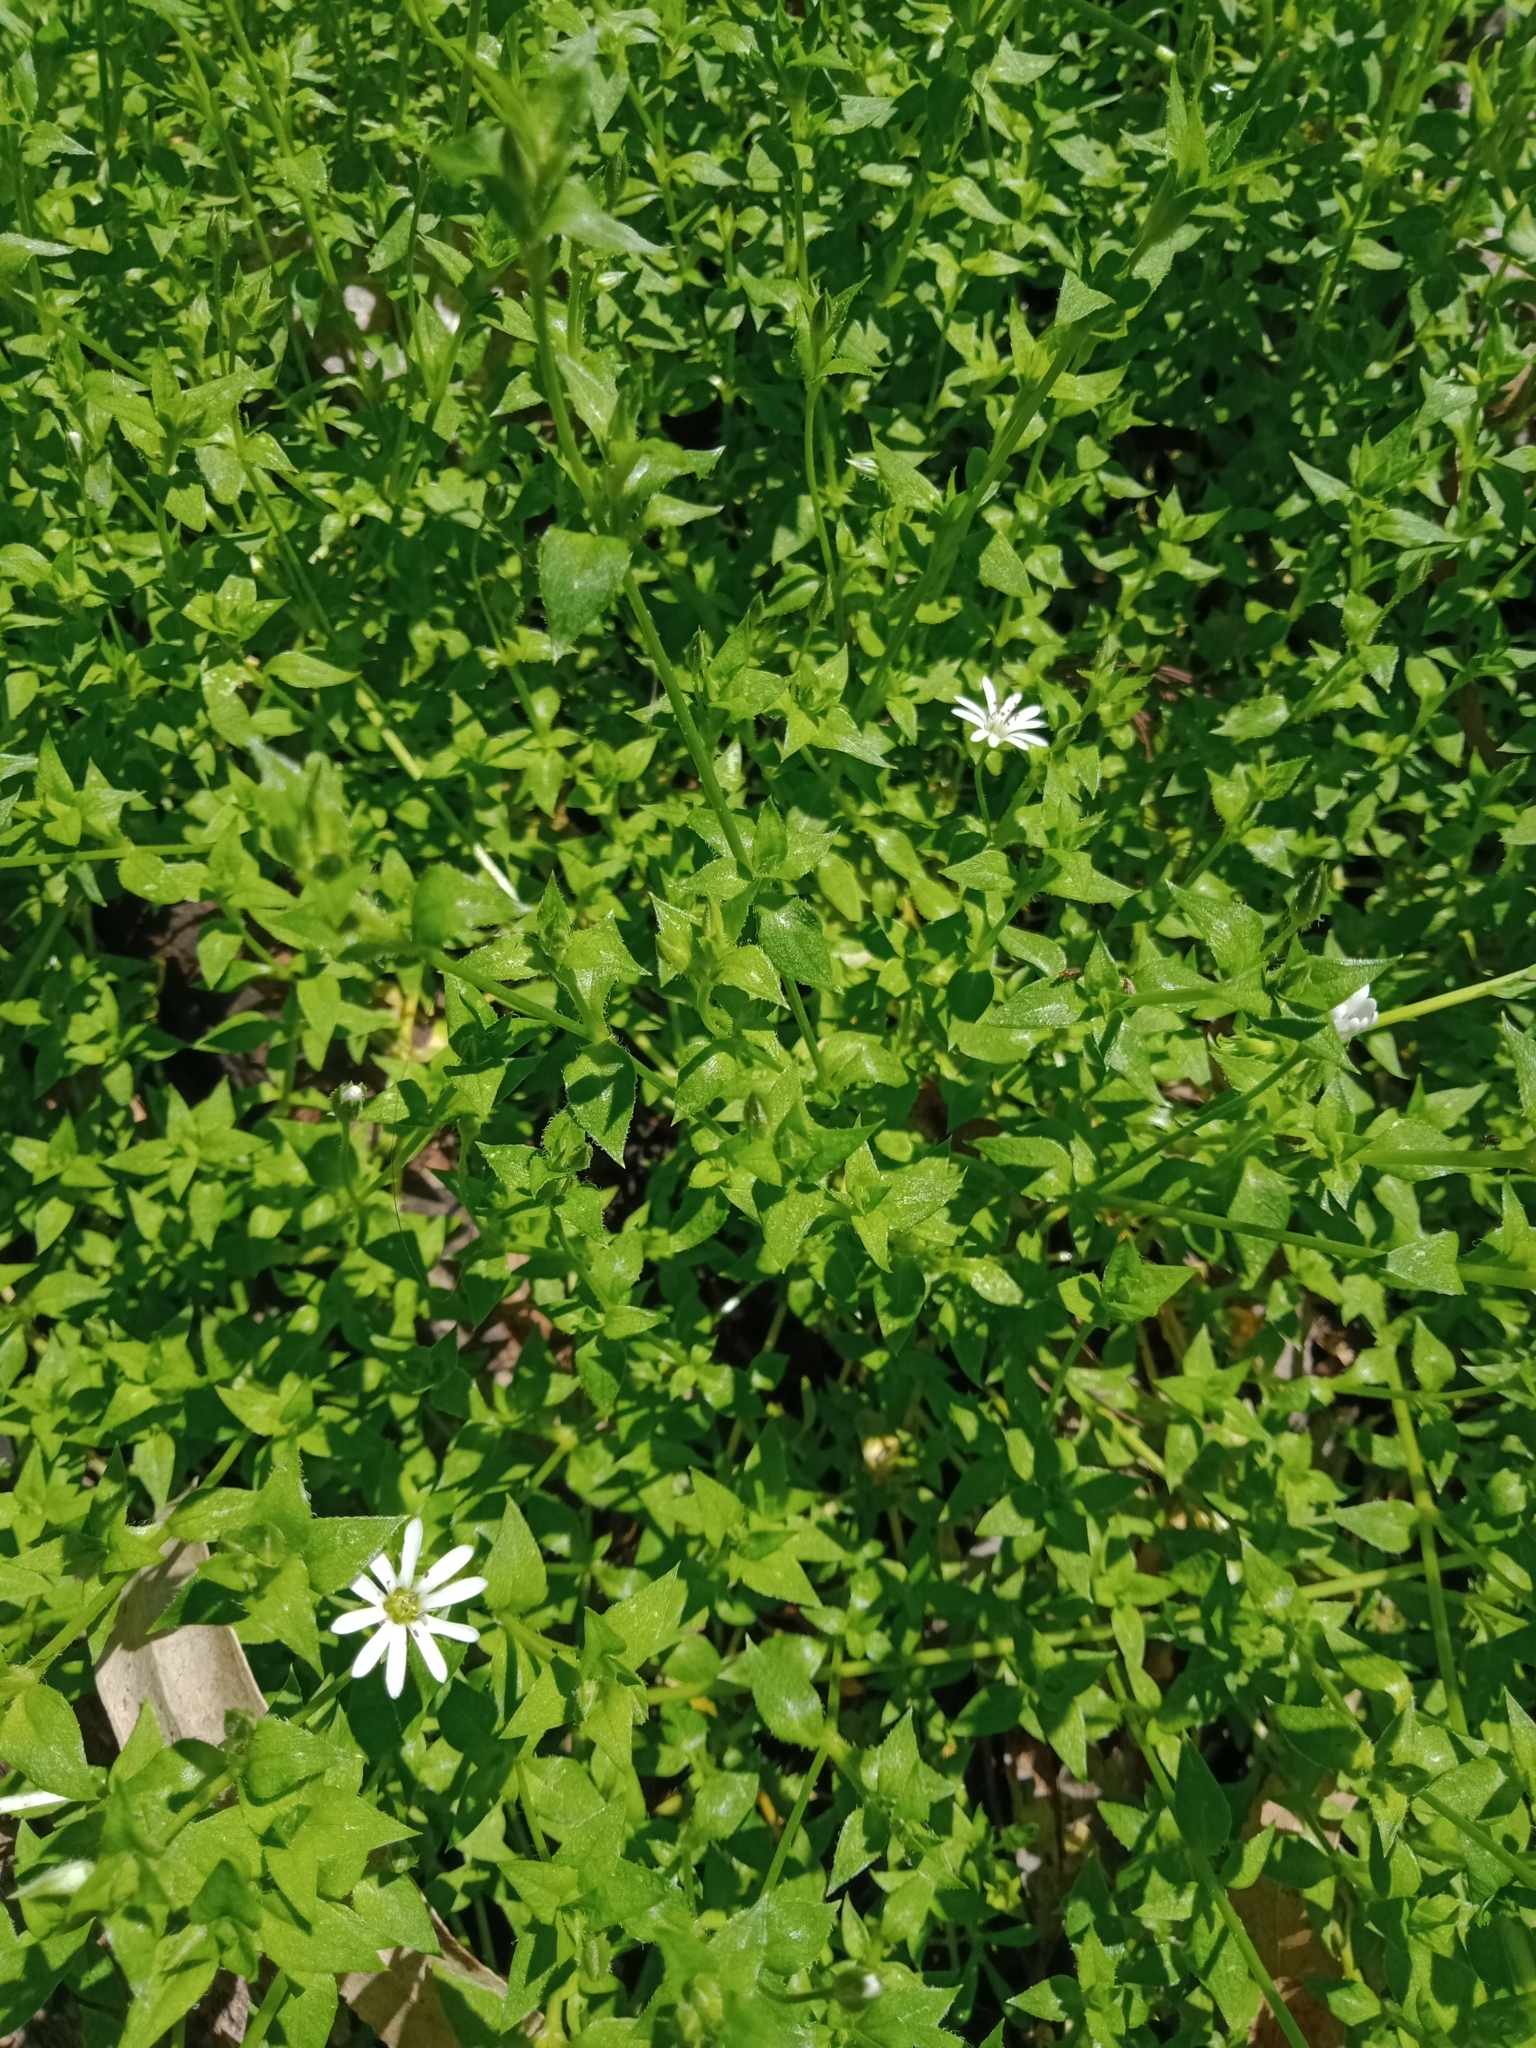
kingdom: Plantae
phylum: Tracheophyta
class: Magnoliopsida
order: Caryophyllales
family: Caryophyllaceae
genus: Stellaria
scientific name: Stellaria flaccida
